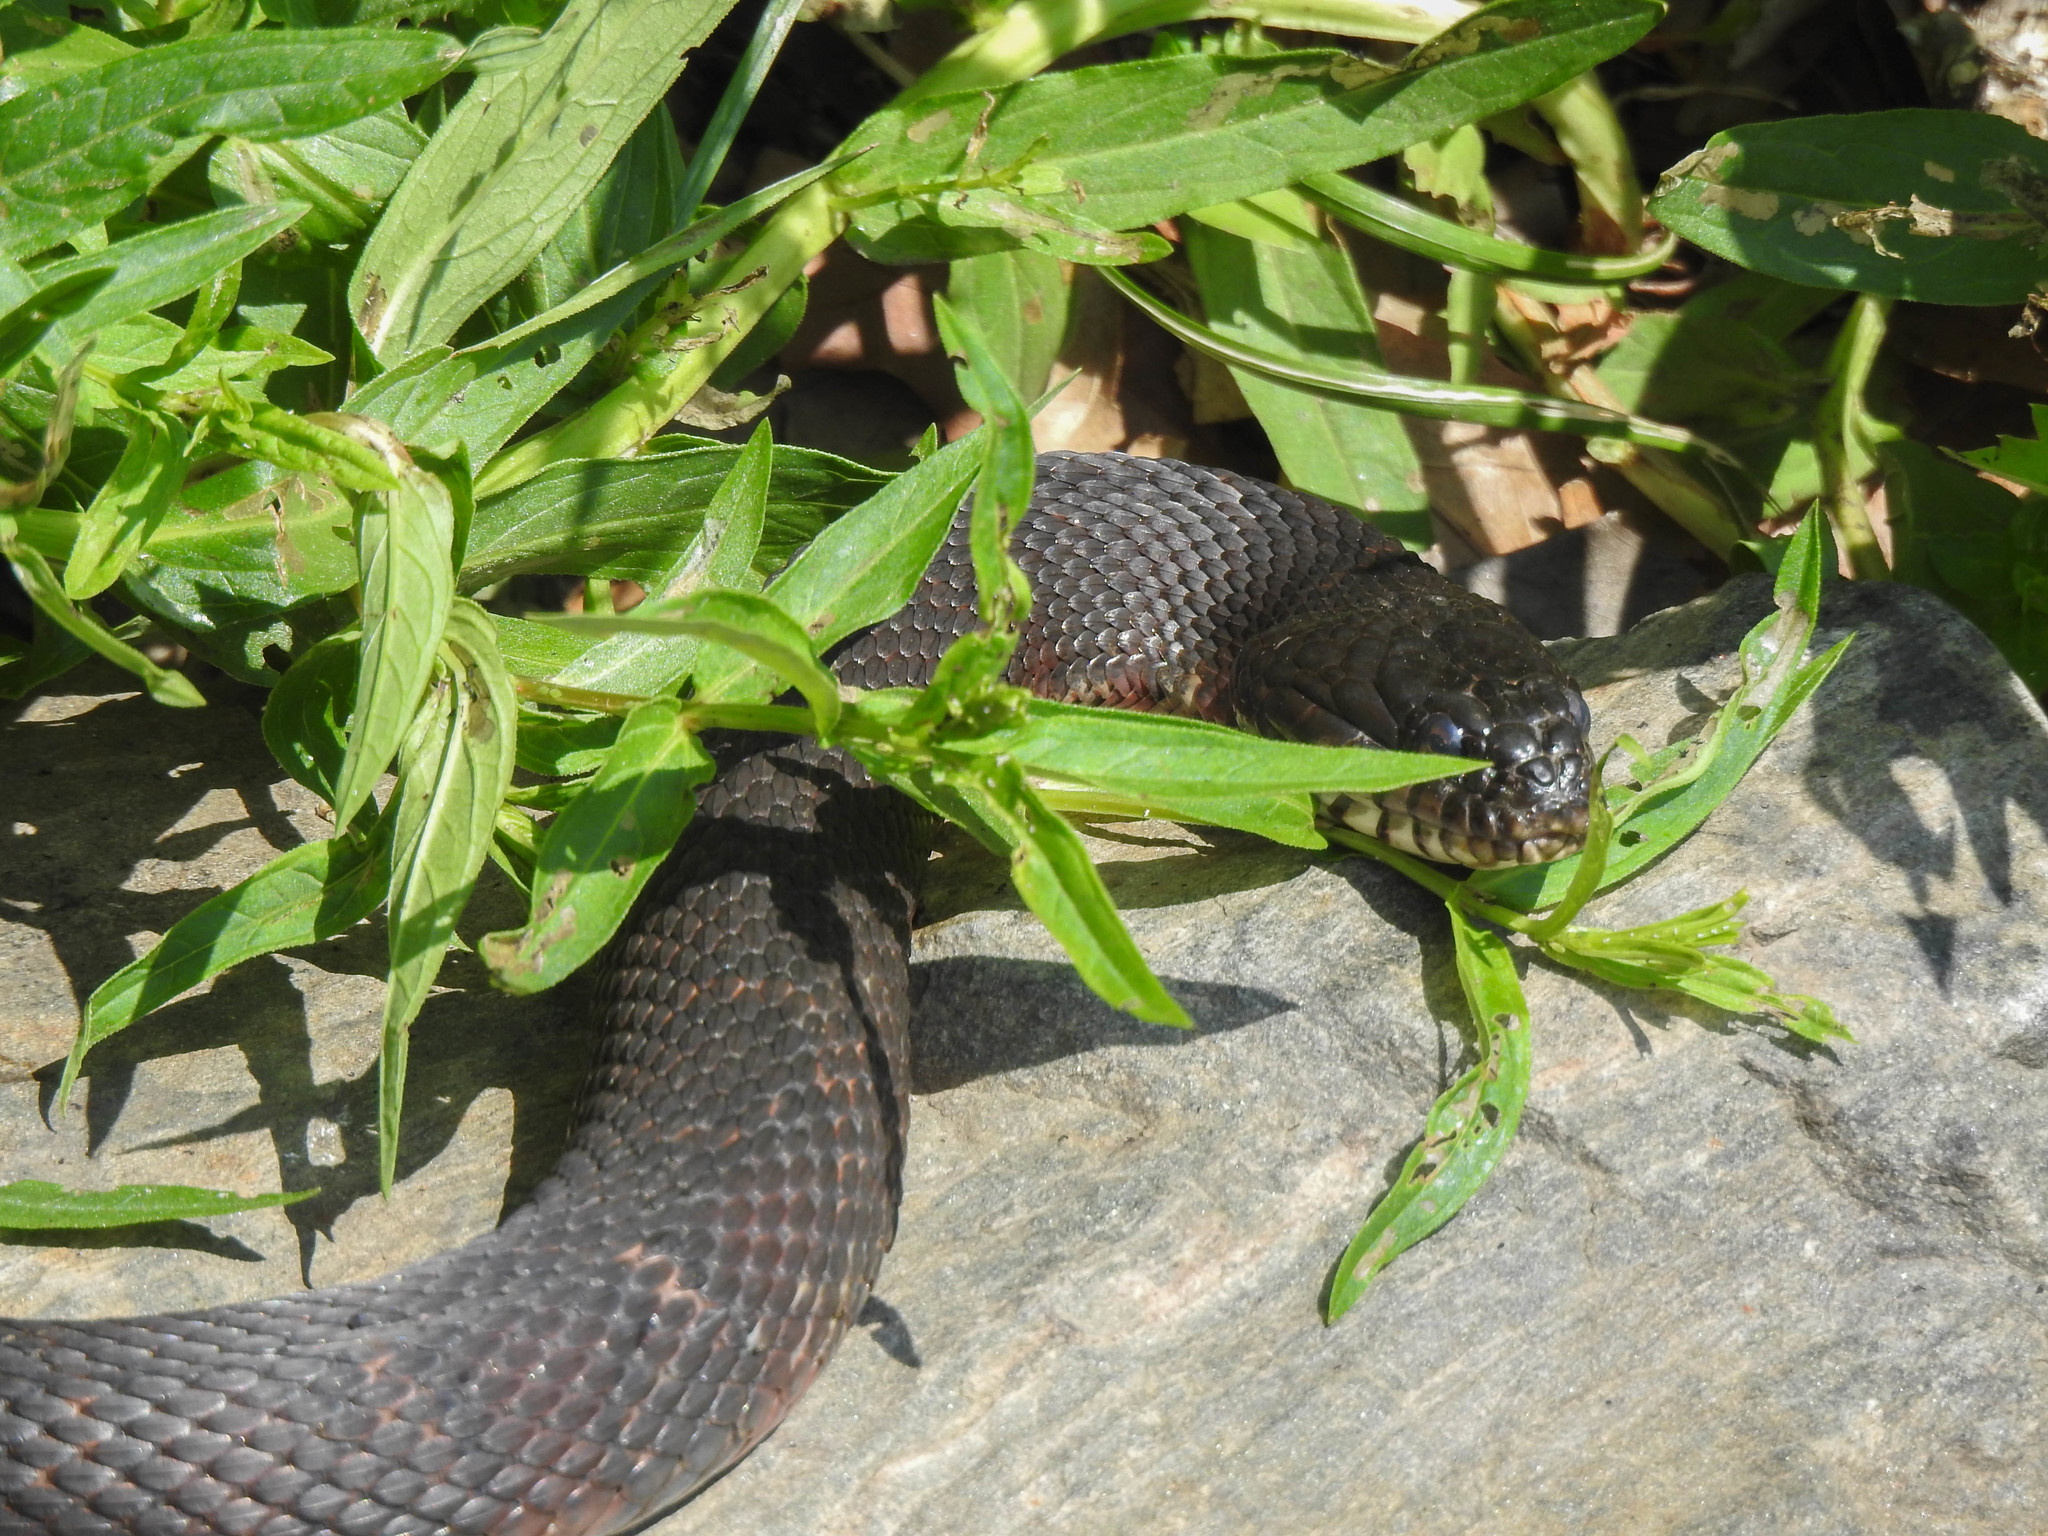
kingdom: Animalia
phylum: Chordata
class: Squamata
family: Colubridae
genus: Nerodia
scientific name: Nerodia sipedon
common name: Northern water snake
